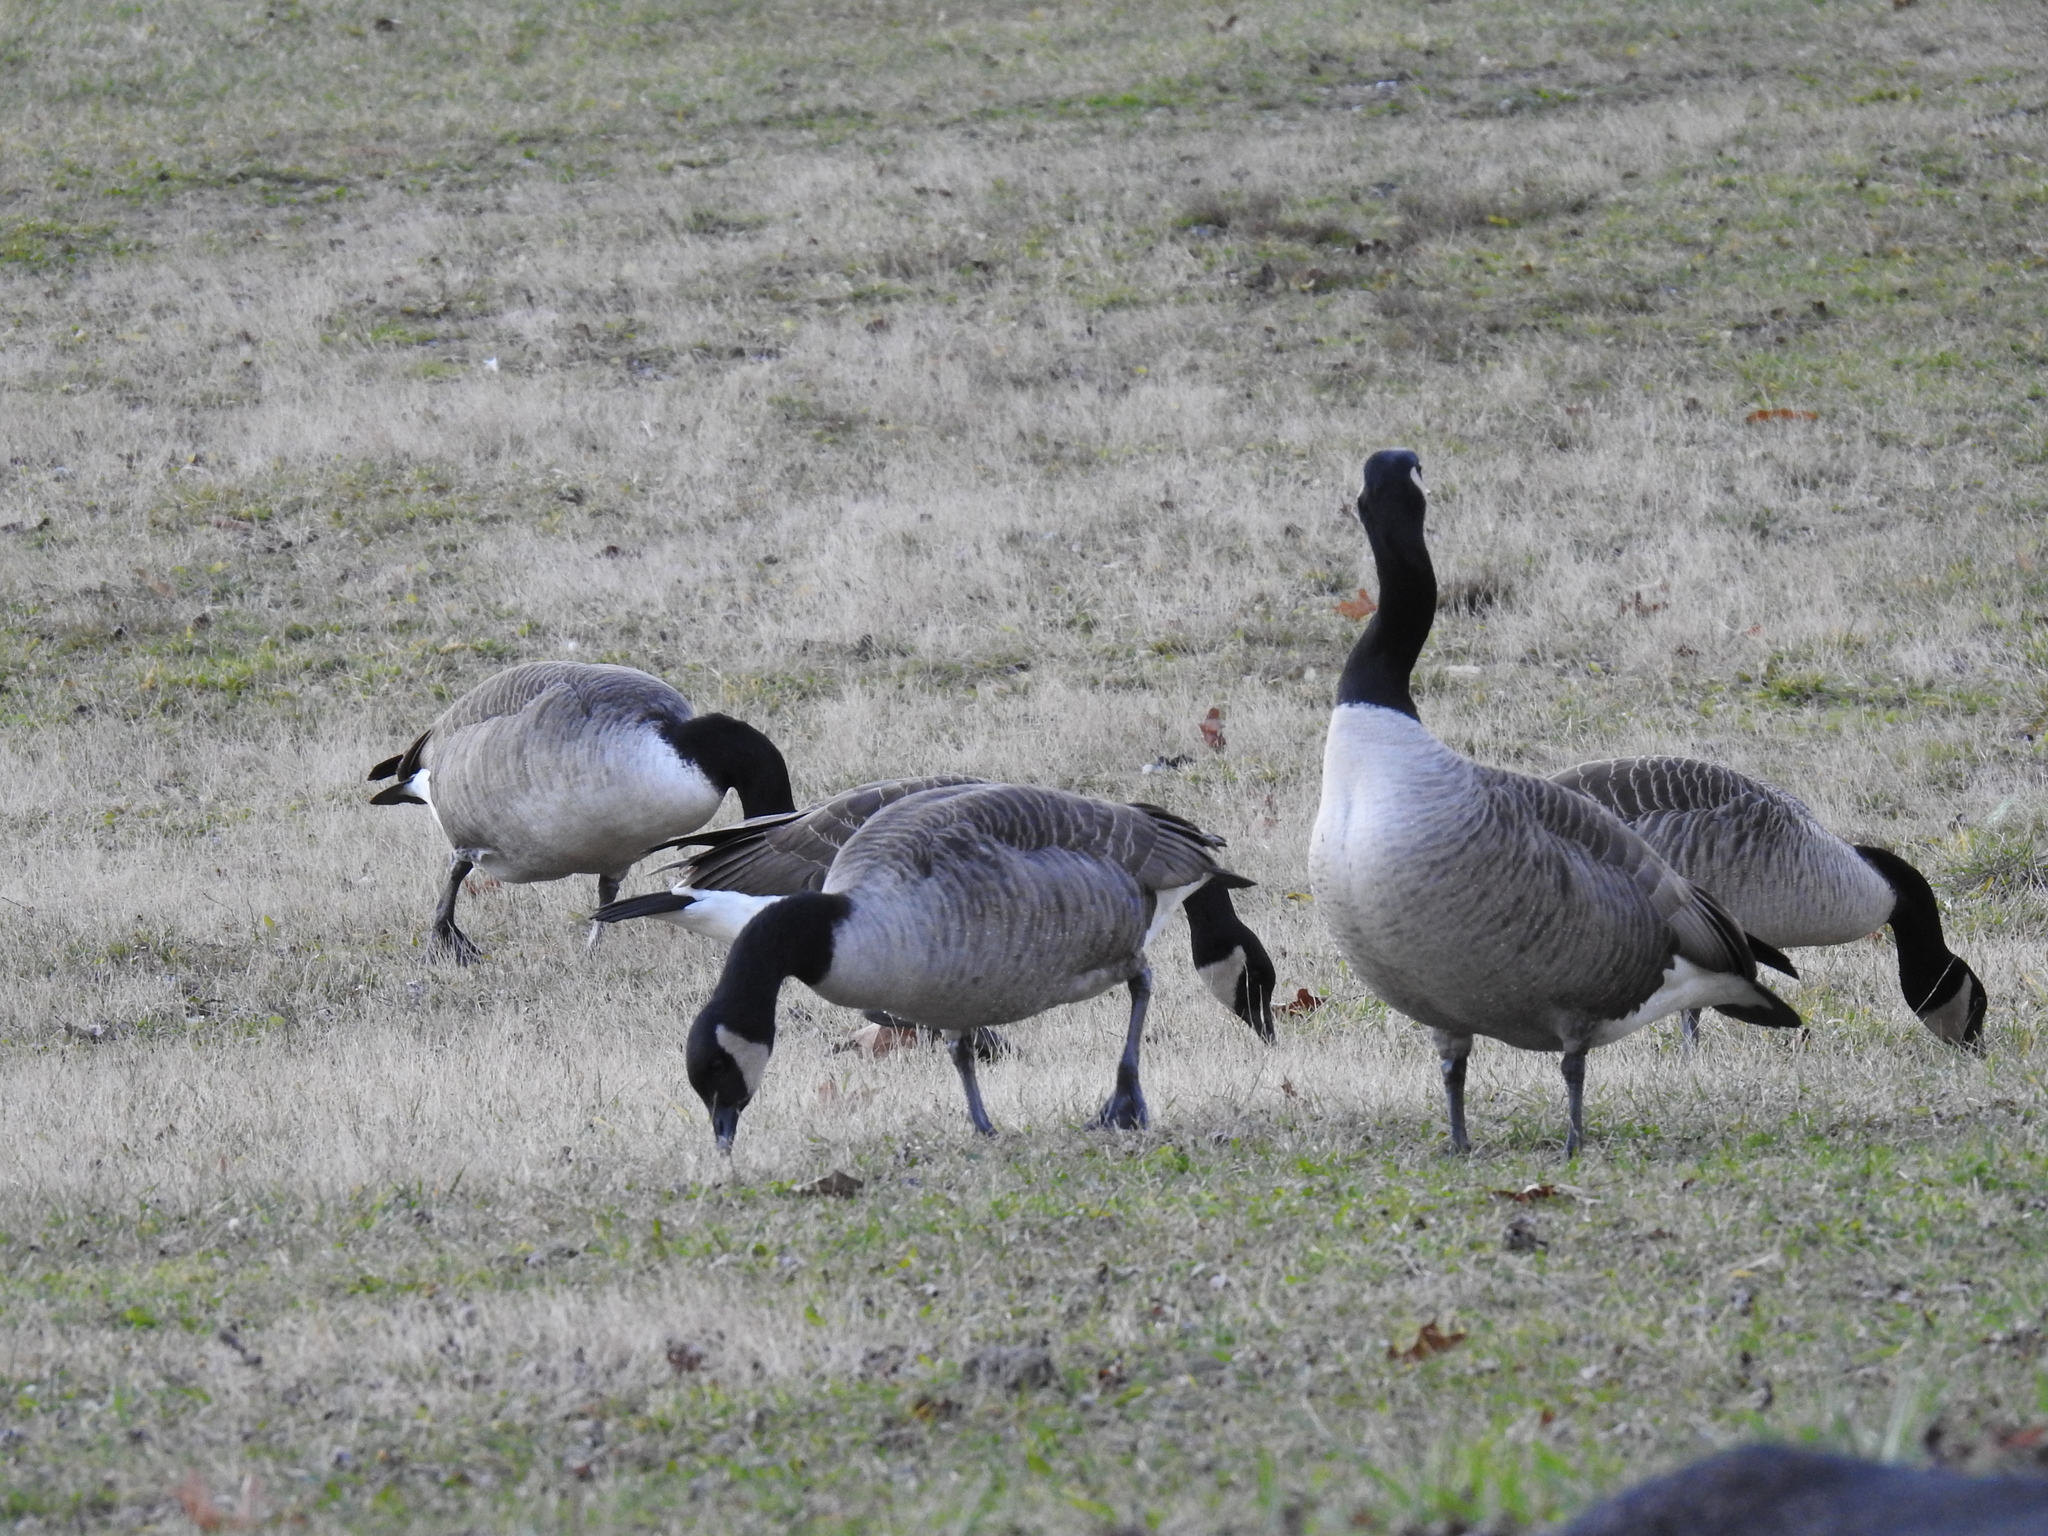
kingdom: Animalia
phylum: Chordata
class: Aves
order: Anseriformes
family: Anatidae
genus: Branta
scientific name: Branta canadensis
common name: Canada goose
